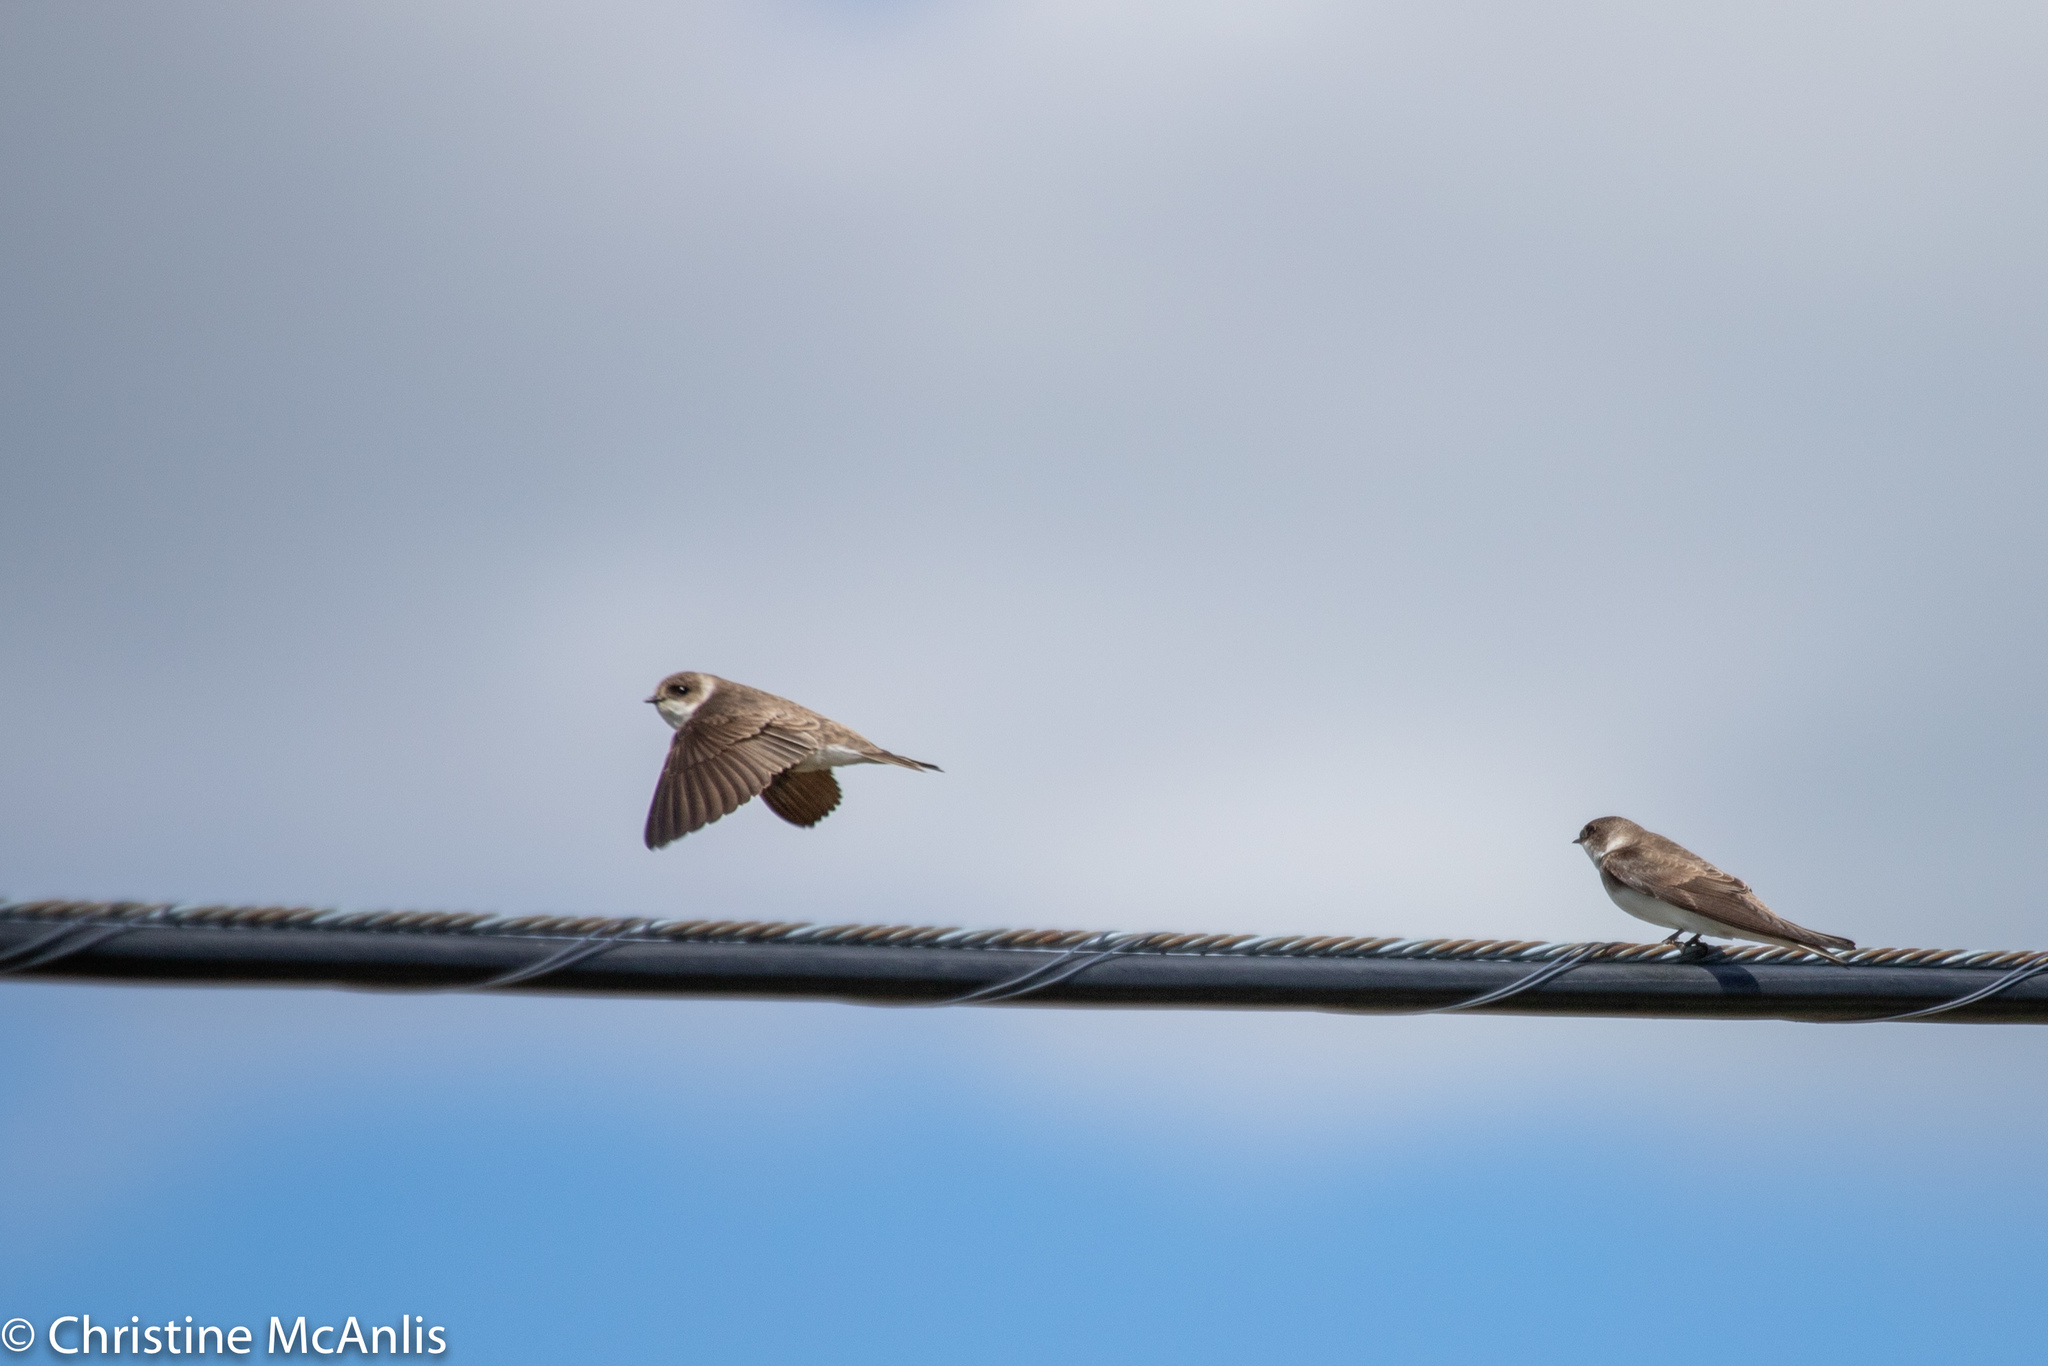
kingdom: Animalia
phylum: Chordata
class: Aves
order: Passeriformes
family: Hirundinidae
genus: Riparia
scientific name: Riparia riparia
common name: Sand martin
